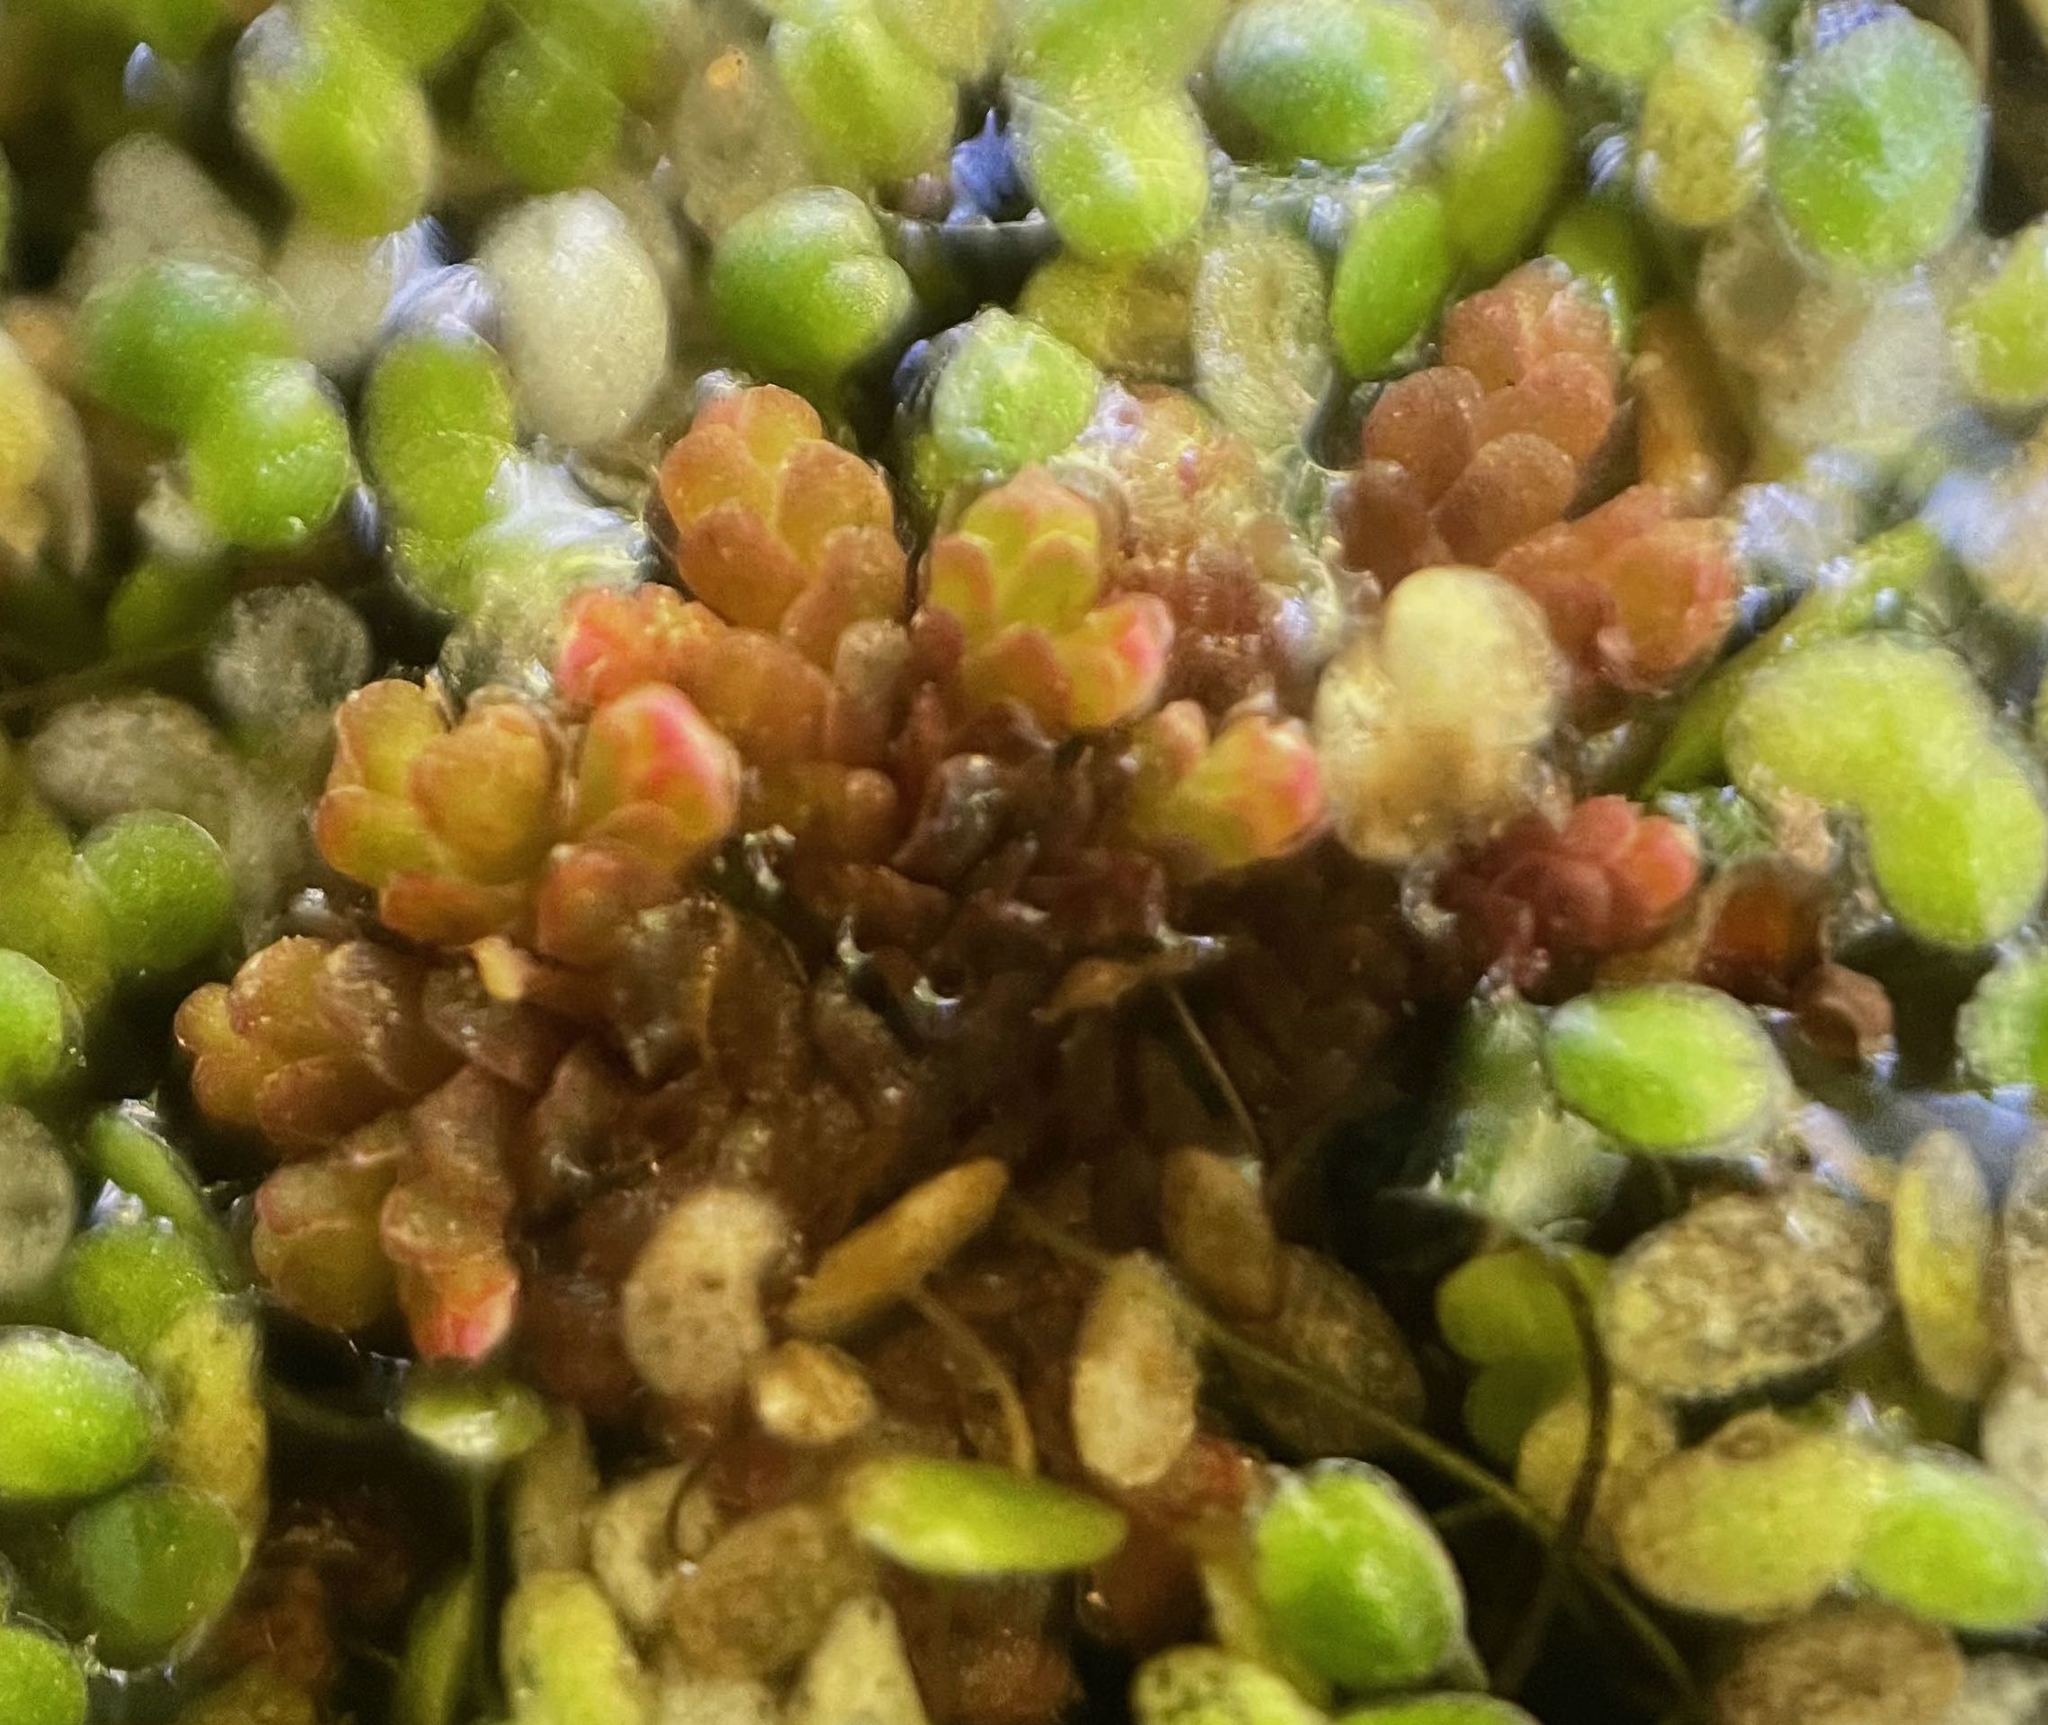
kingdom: Plantae
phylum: Tracheophyta
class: Polypodiopsida
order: Salviniales
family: Salviniaceae
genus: Azolla
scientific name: Azolla filiculoides
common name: Water fern
